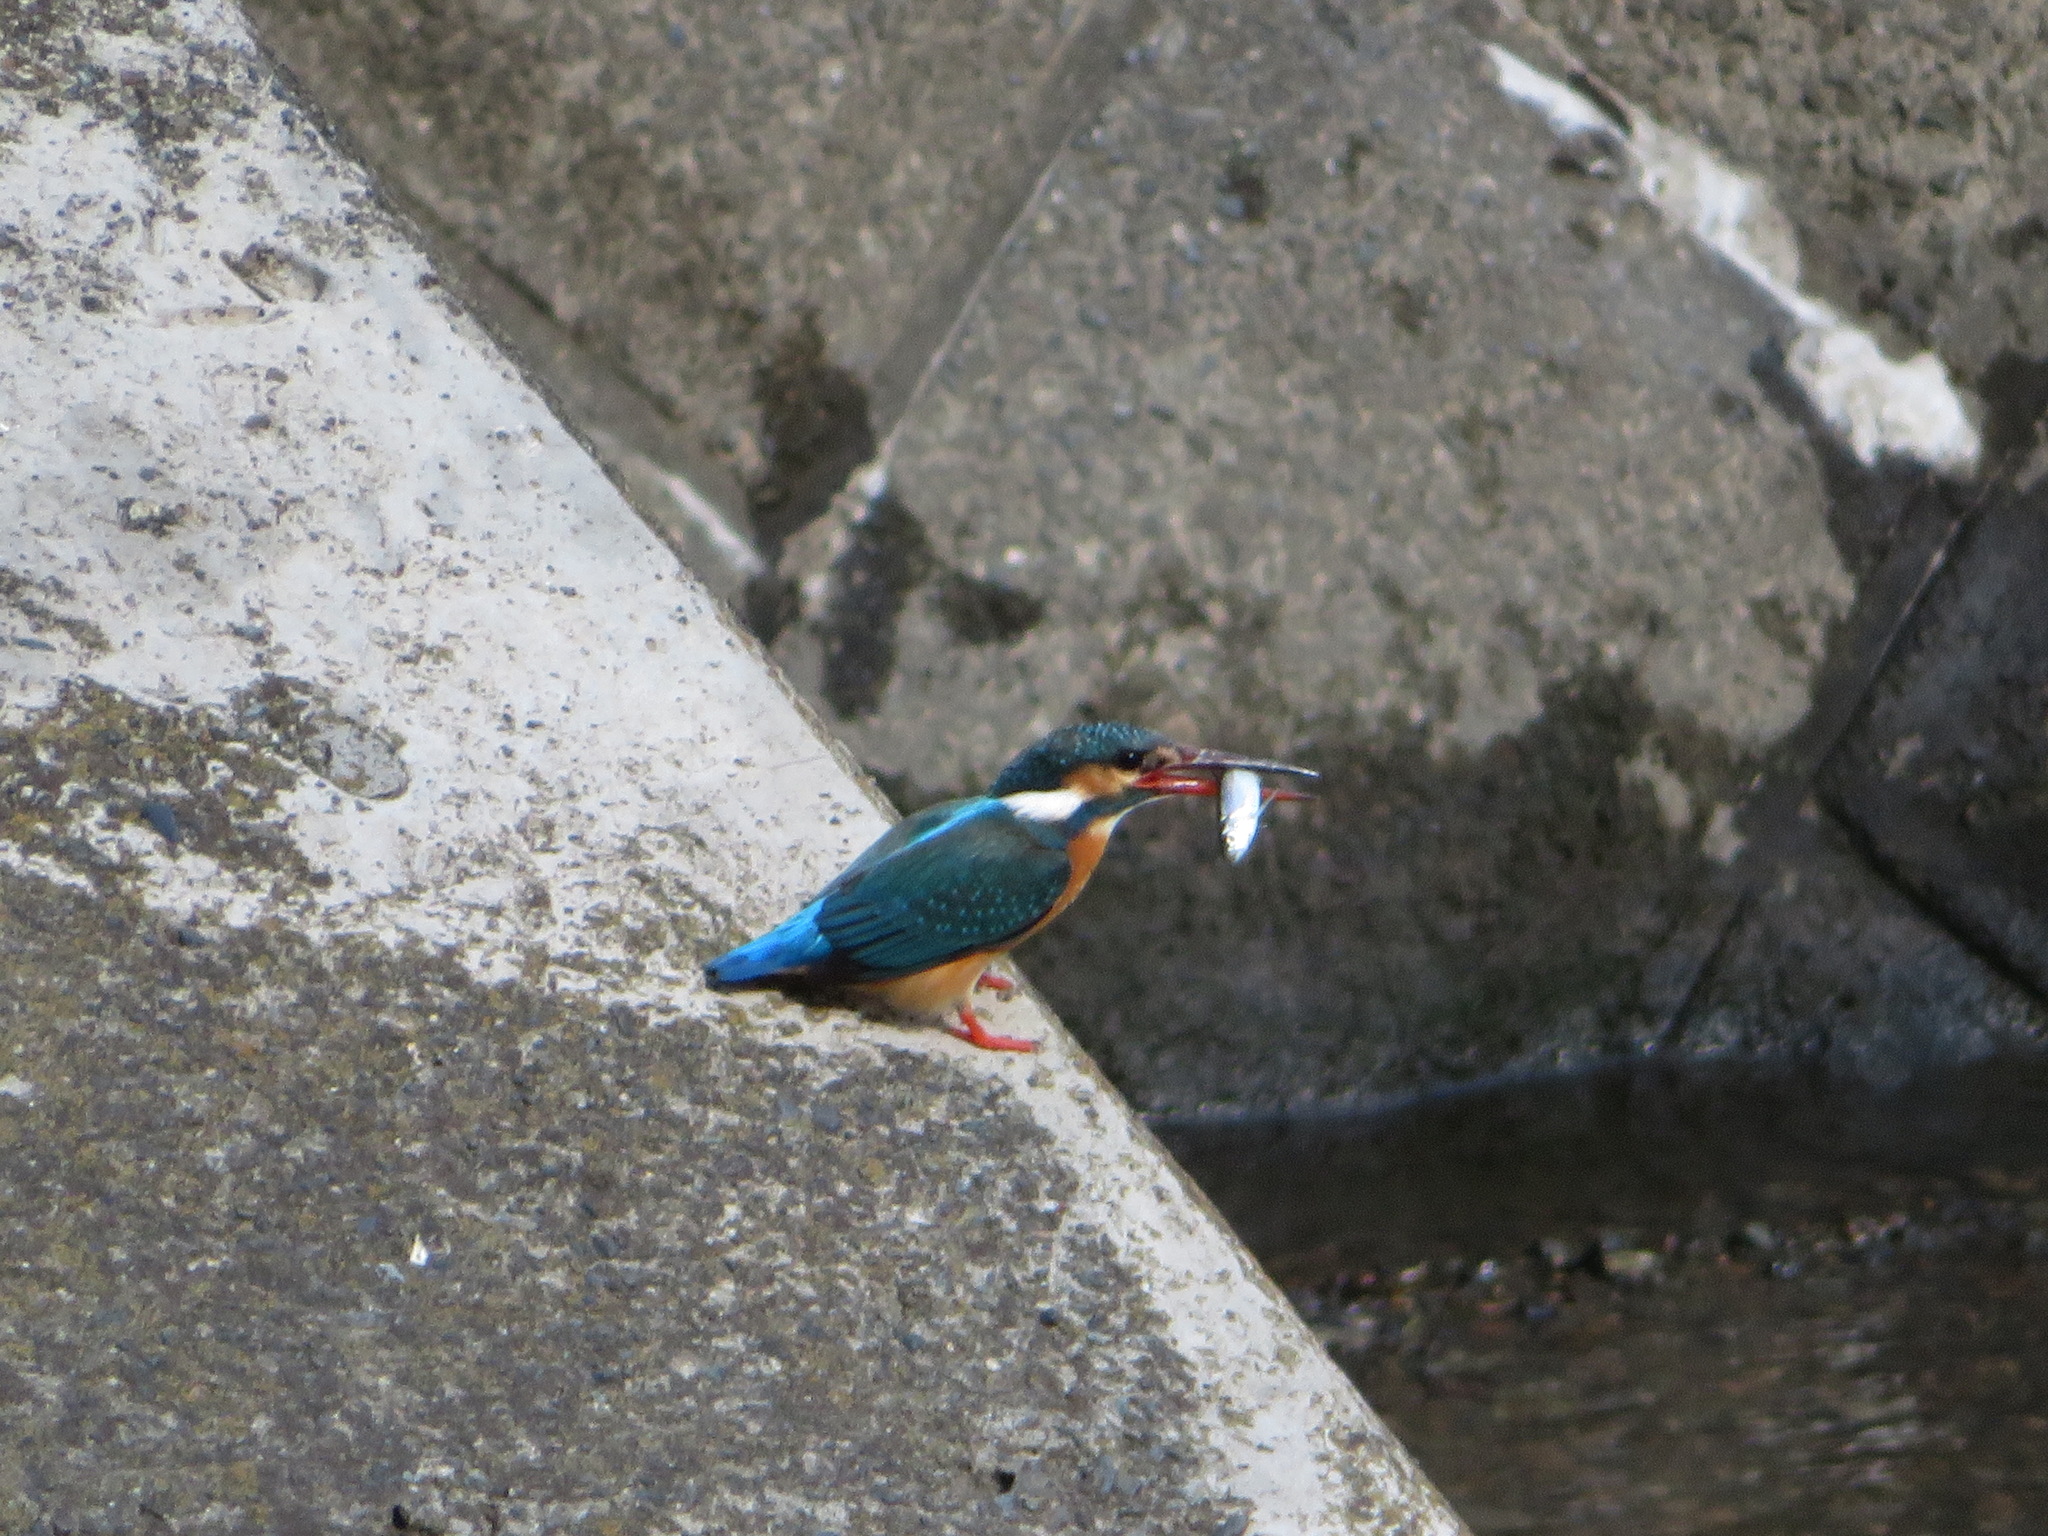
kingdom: Animalia
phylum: Chordata
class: Aves
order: Coraciiformes
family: Alcedinidae
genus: Alcedo
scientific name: Alcedo atthis
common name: Common kingfisher
